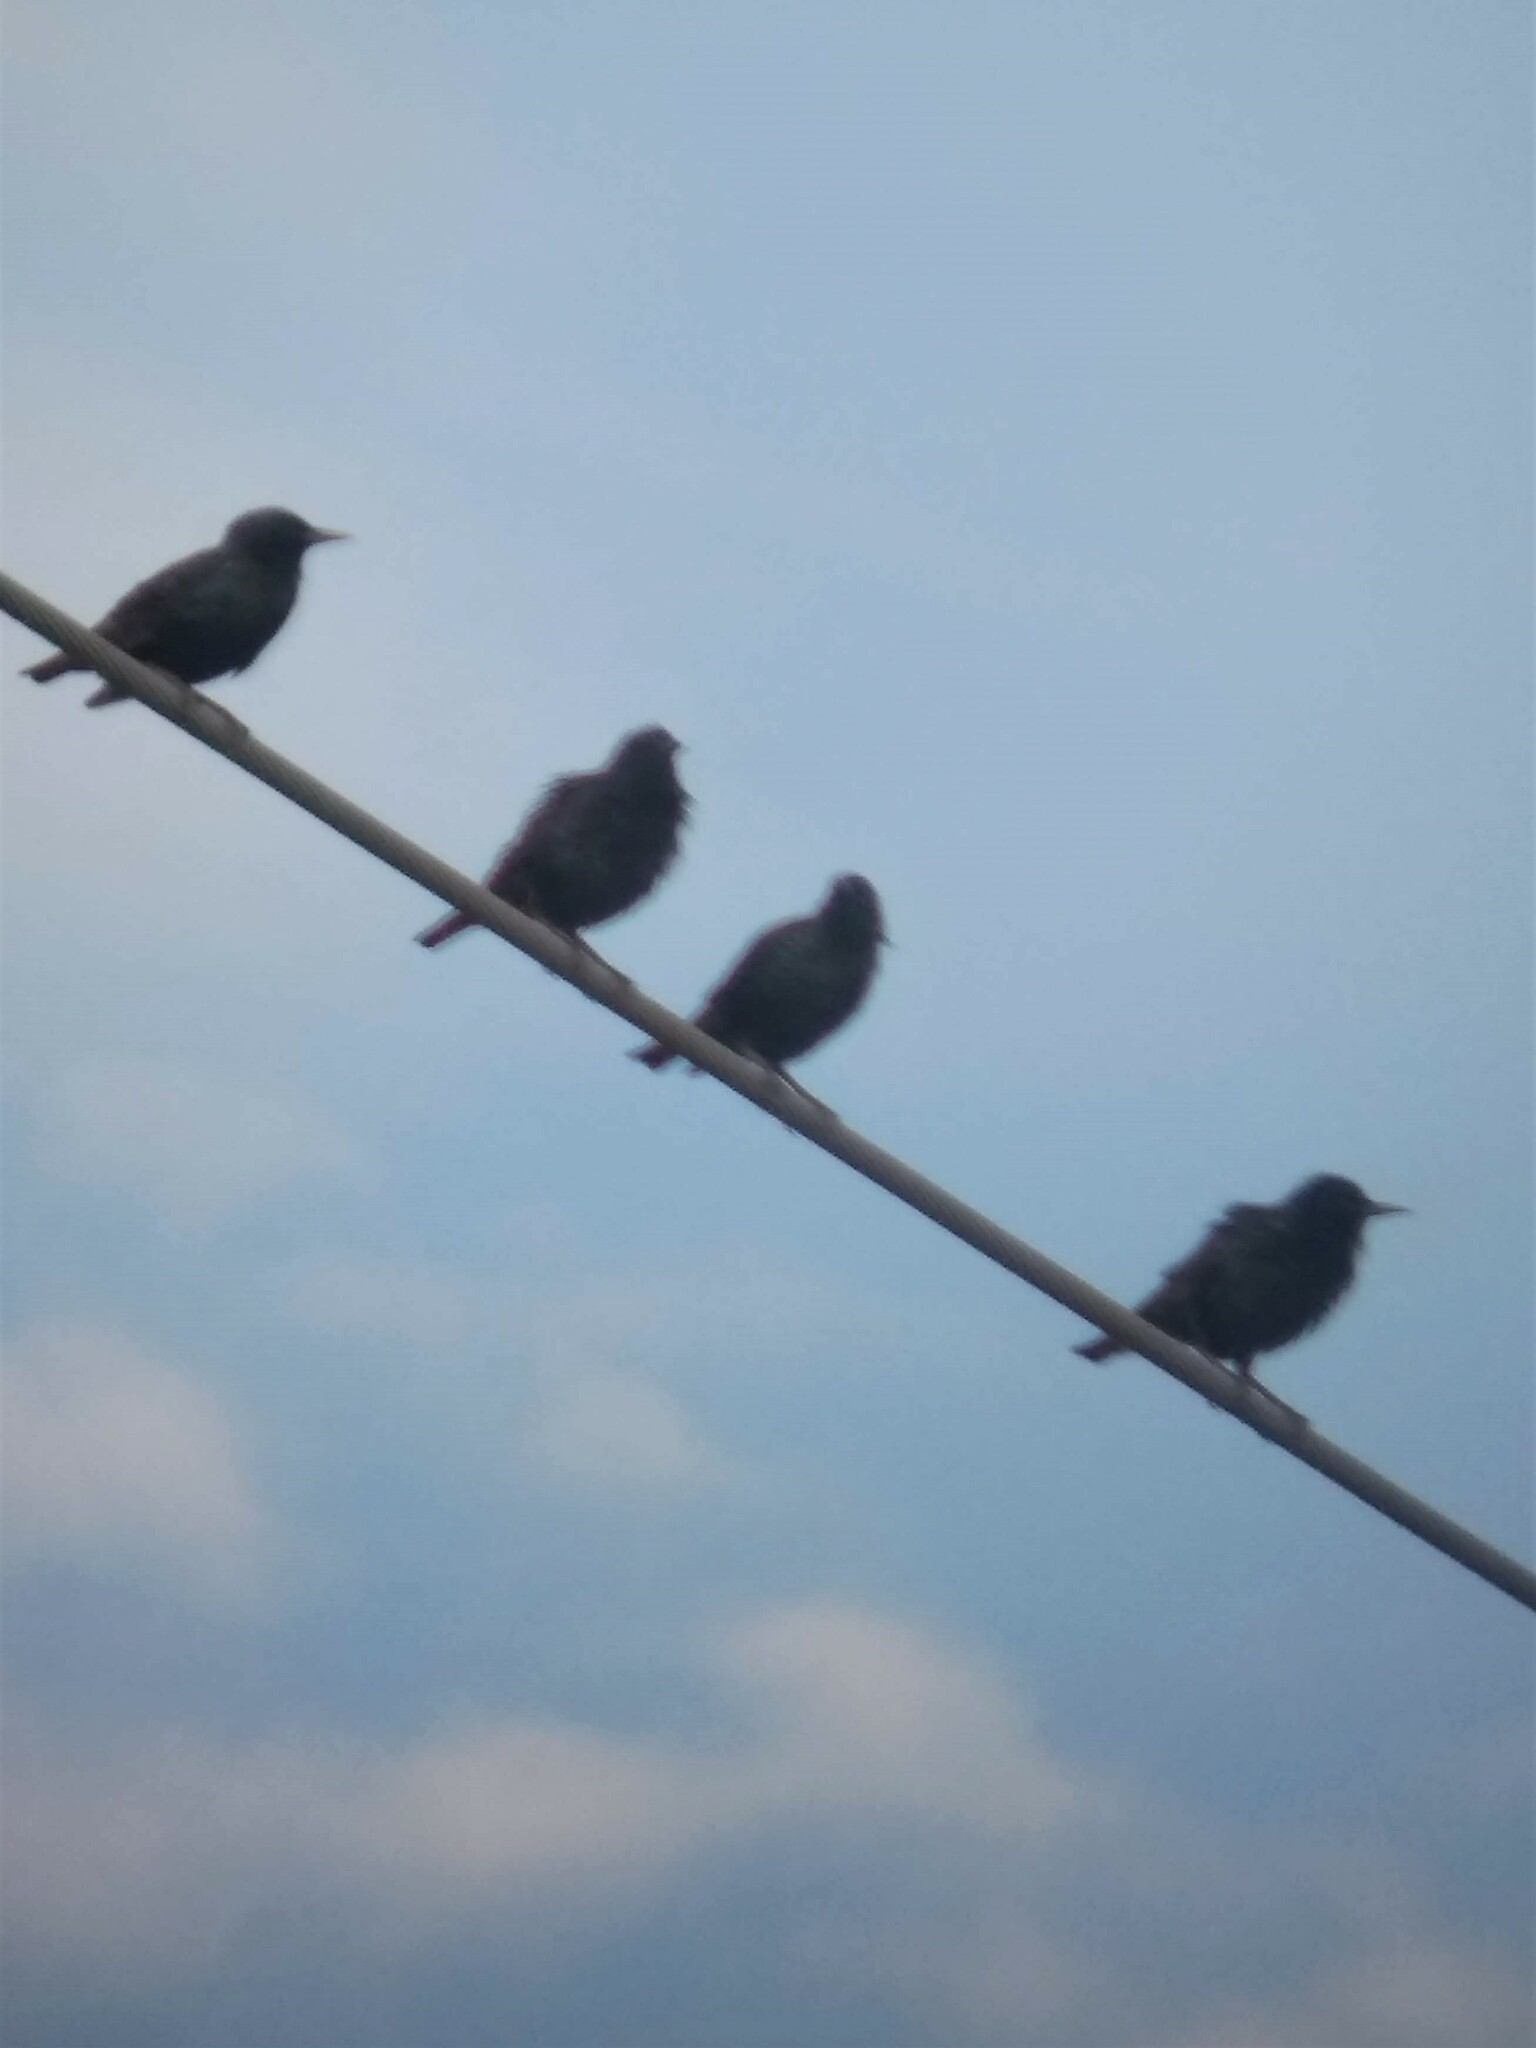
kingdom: Animalia
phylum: Chordata
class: Aves
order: Passeriformes
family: Sturnidae
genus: Sturnus
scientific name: Sturnus vulgaris
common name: Common starling
